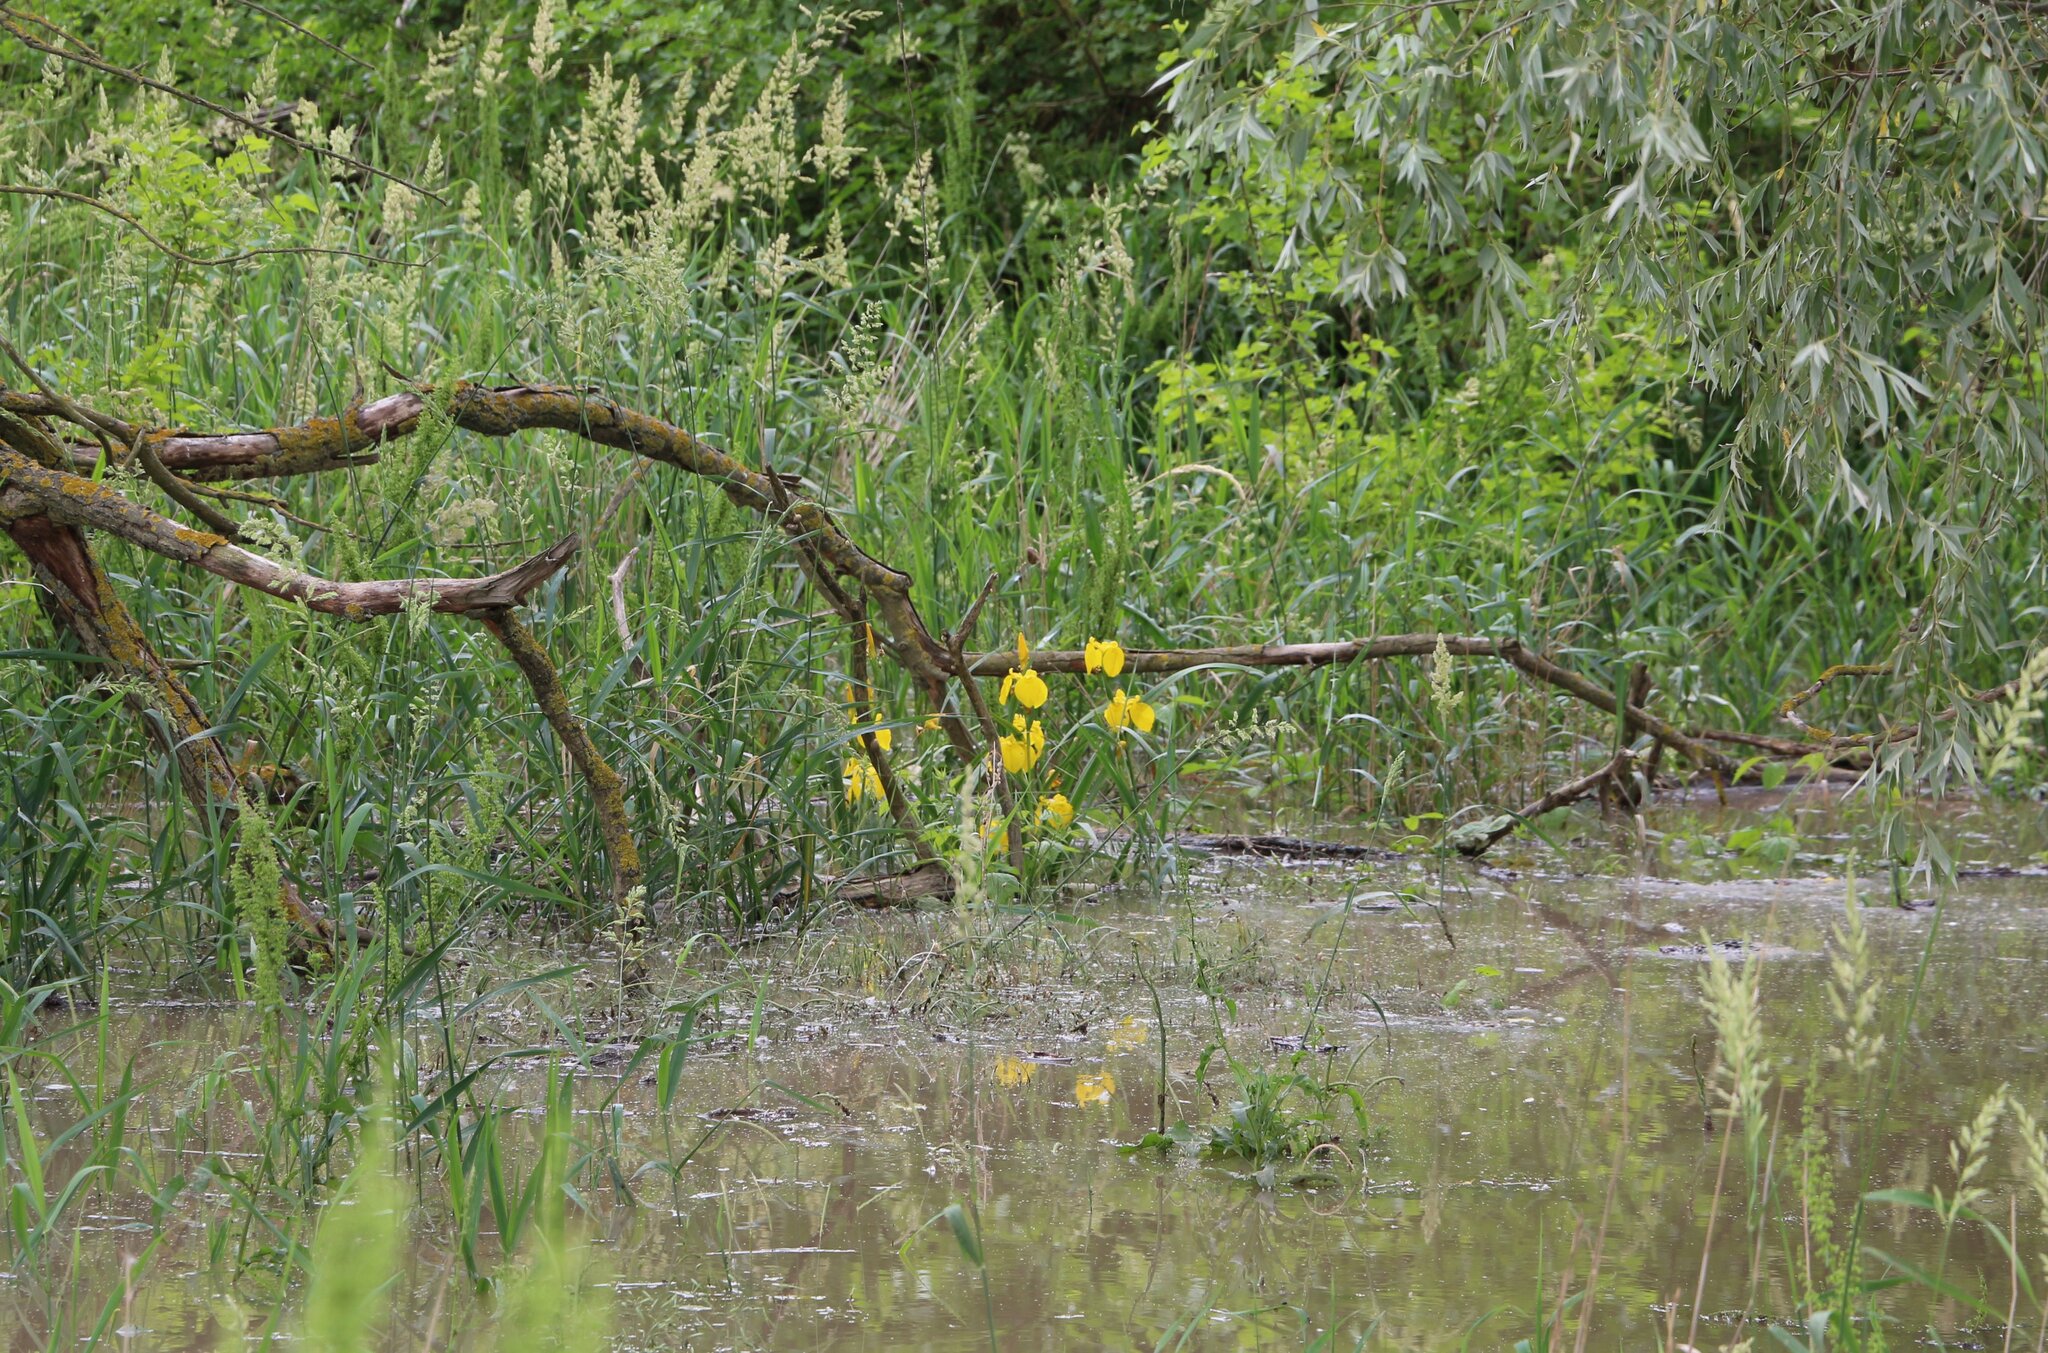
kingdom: Plantae
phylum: Tracheophyta
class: Liliopsida
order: Asparagales
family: Iridaceae
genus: Iris
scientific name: Iris pseudacorus
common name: Yellow flag
